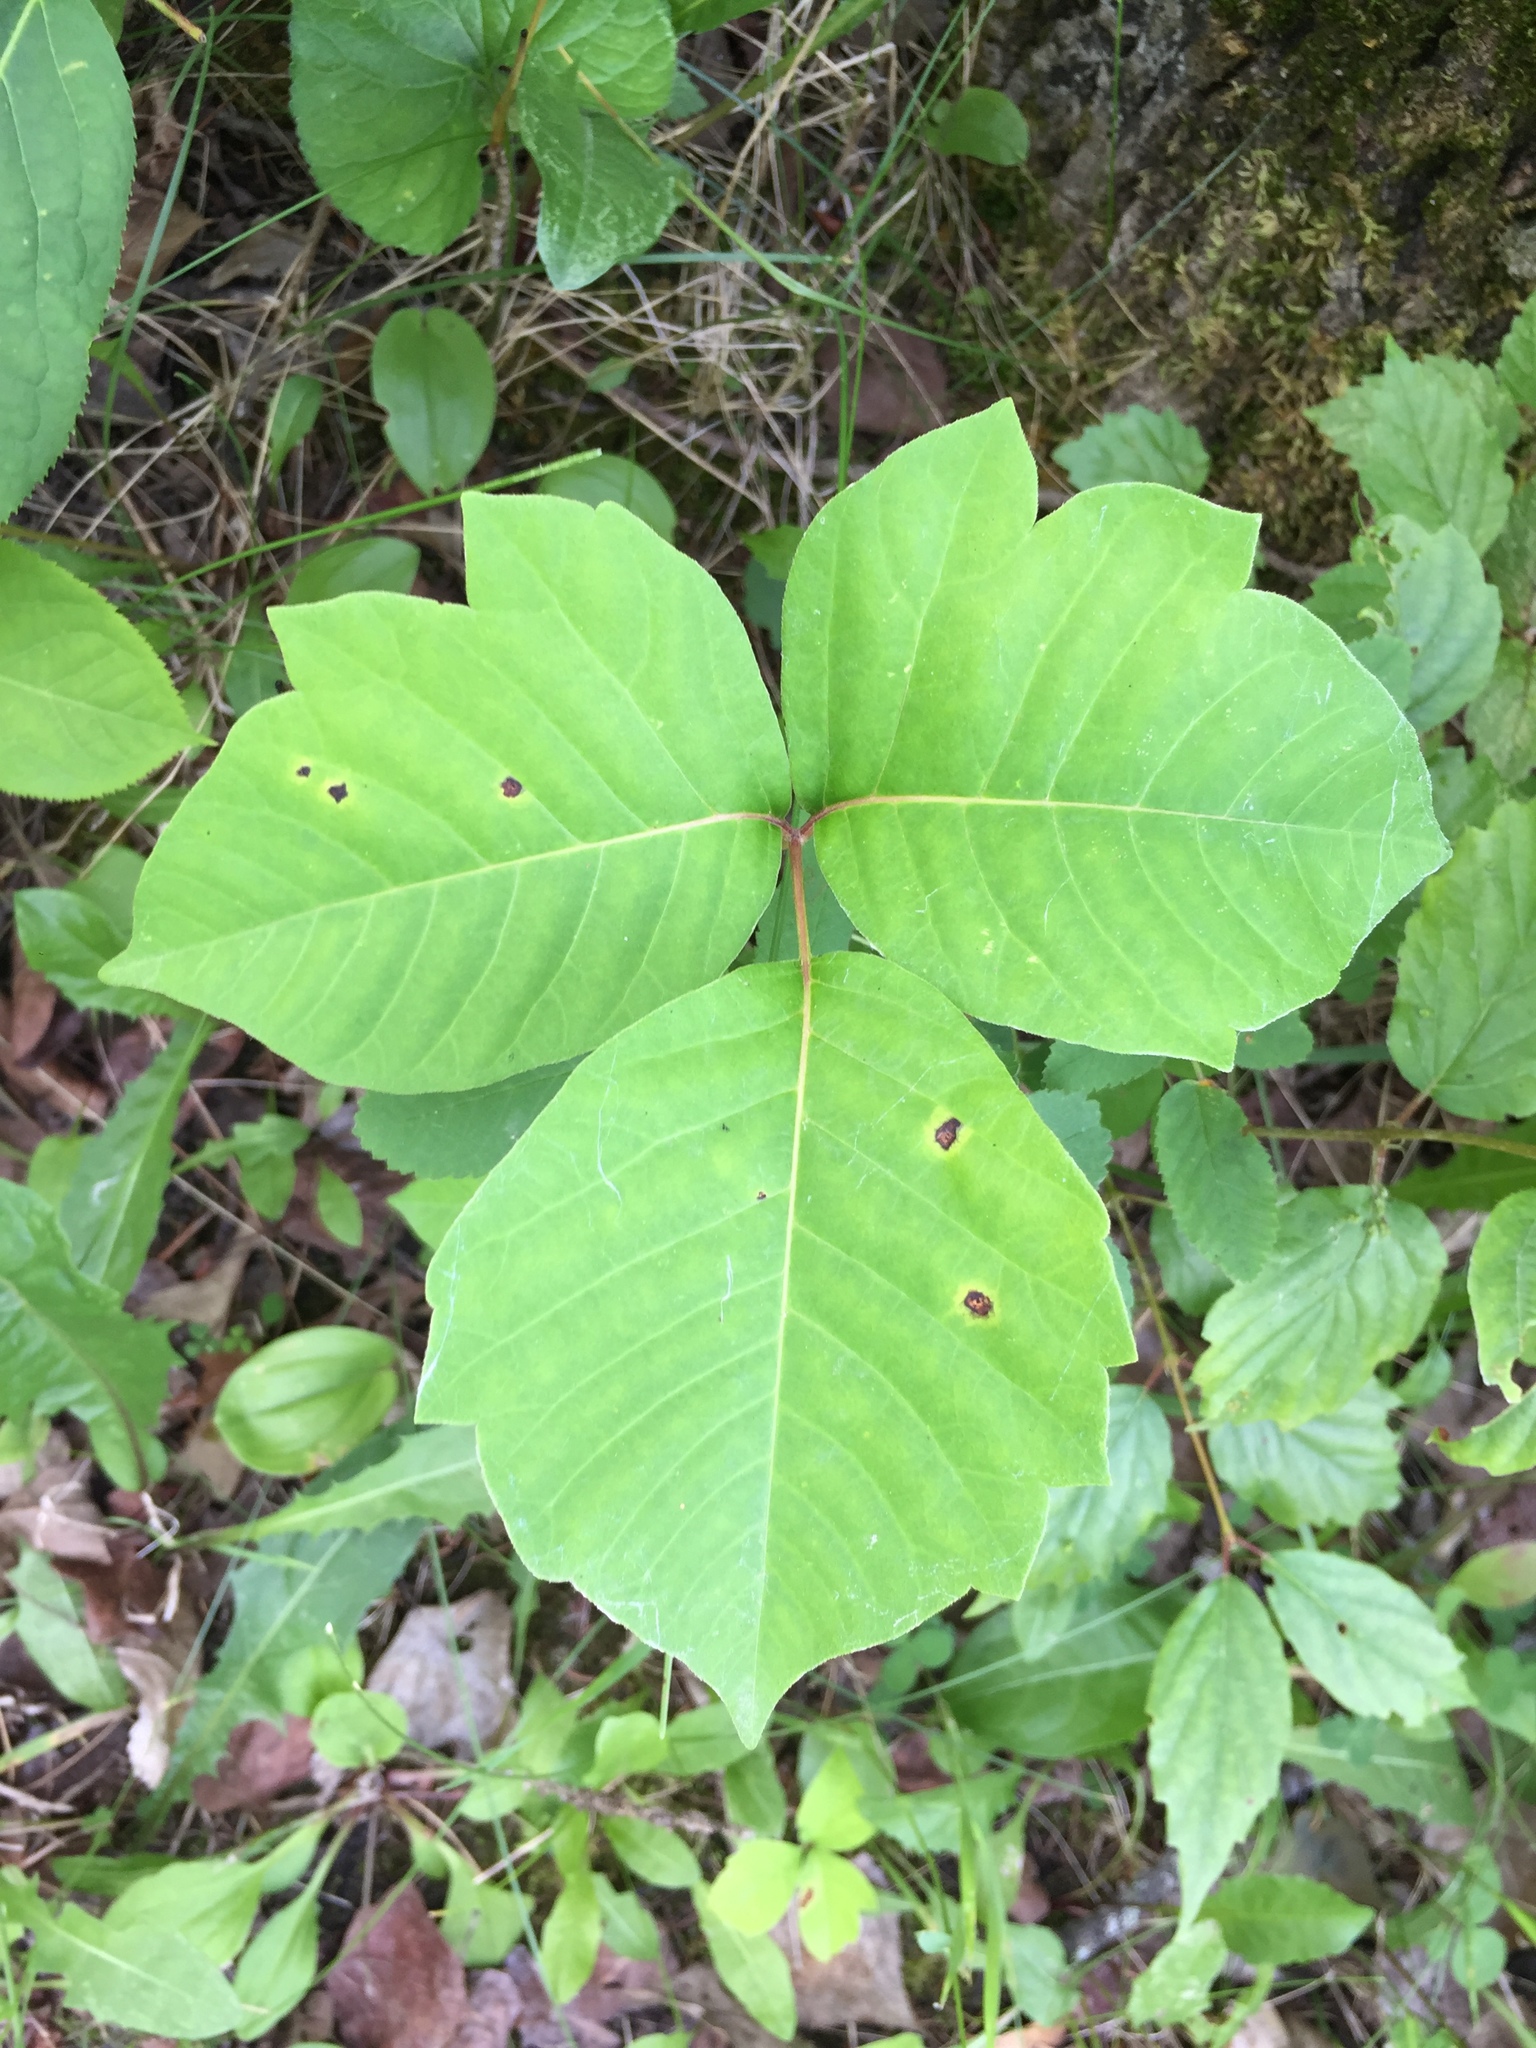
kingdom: Plantae
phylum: Tracheophyta
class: Magnoliopsida
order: Sapindales
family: Anacardiaceae
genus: Toxicodendron
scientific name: Toxicodendron rydbergii
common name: Rydberg's poison-ivy
